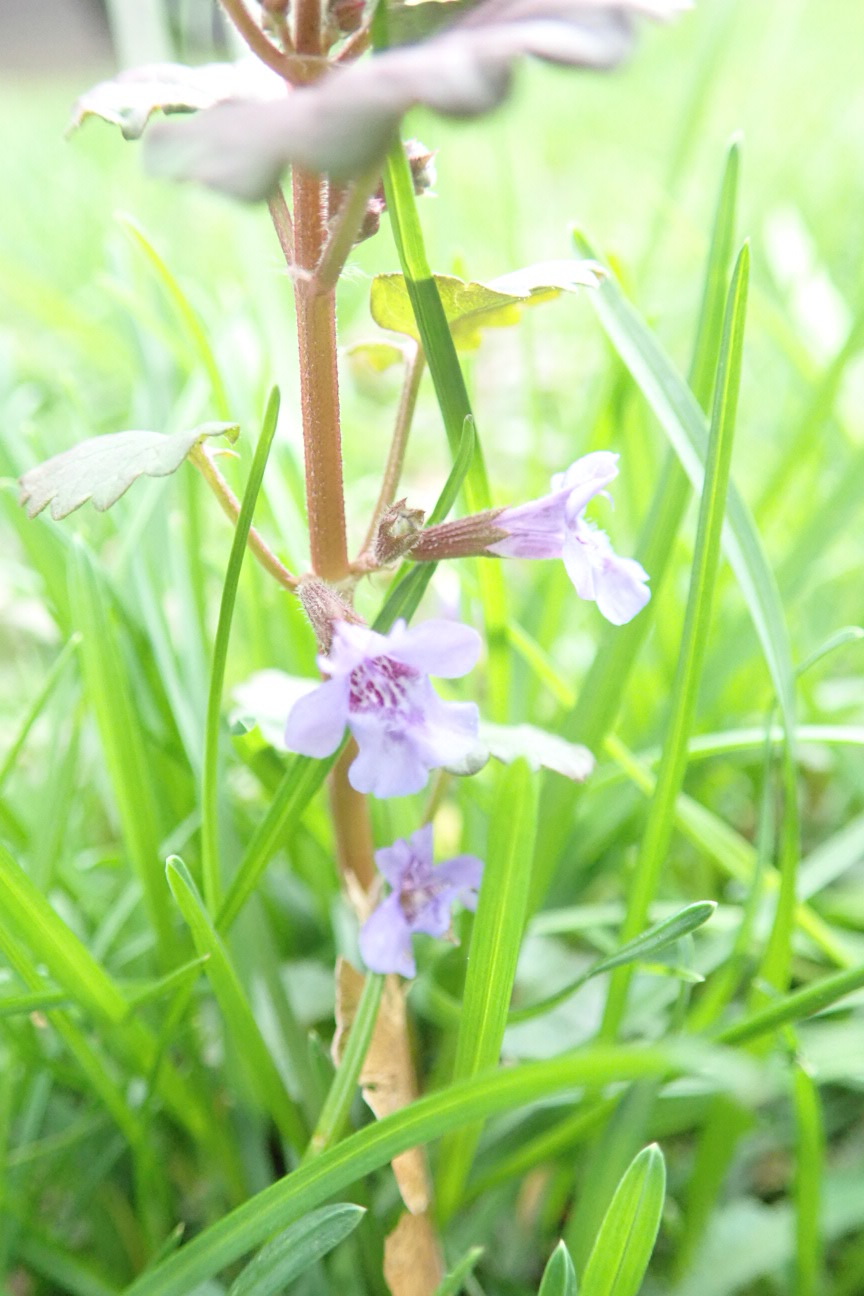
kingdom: Plantae
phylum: Tracheophyta
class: Magnoliopsida
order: Lamiales
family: Lamiaceae
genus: Glechoma
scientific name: Glechoma hederacea
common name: Ground ivy
